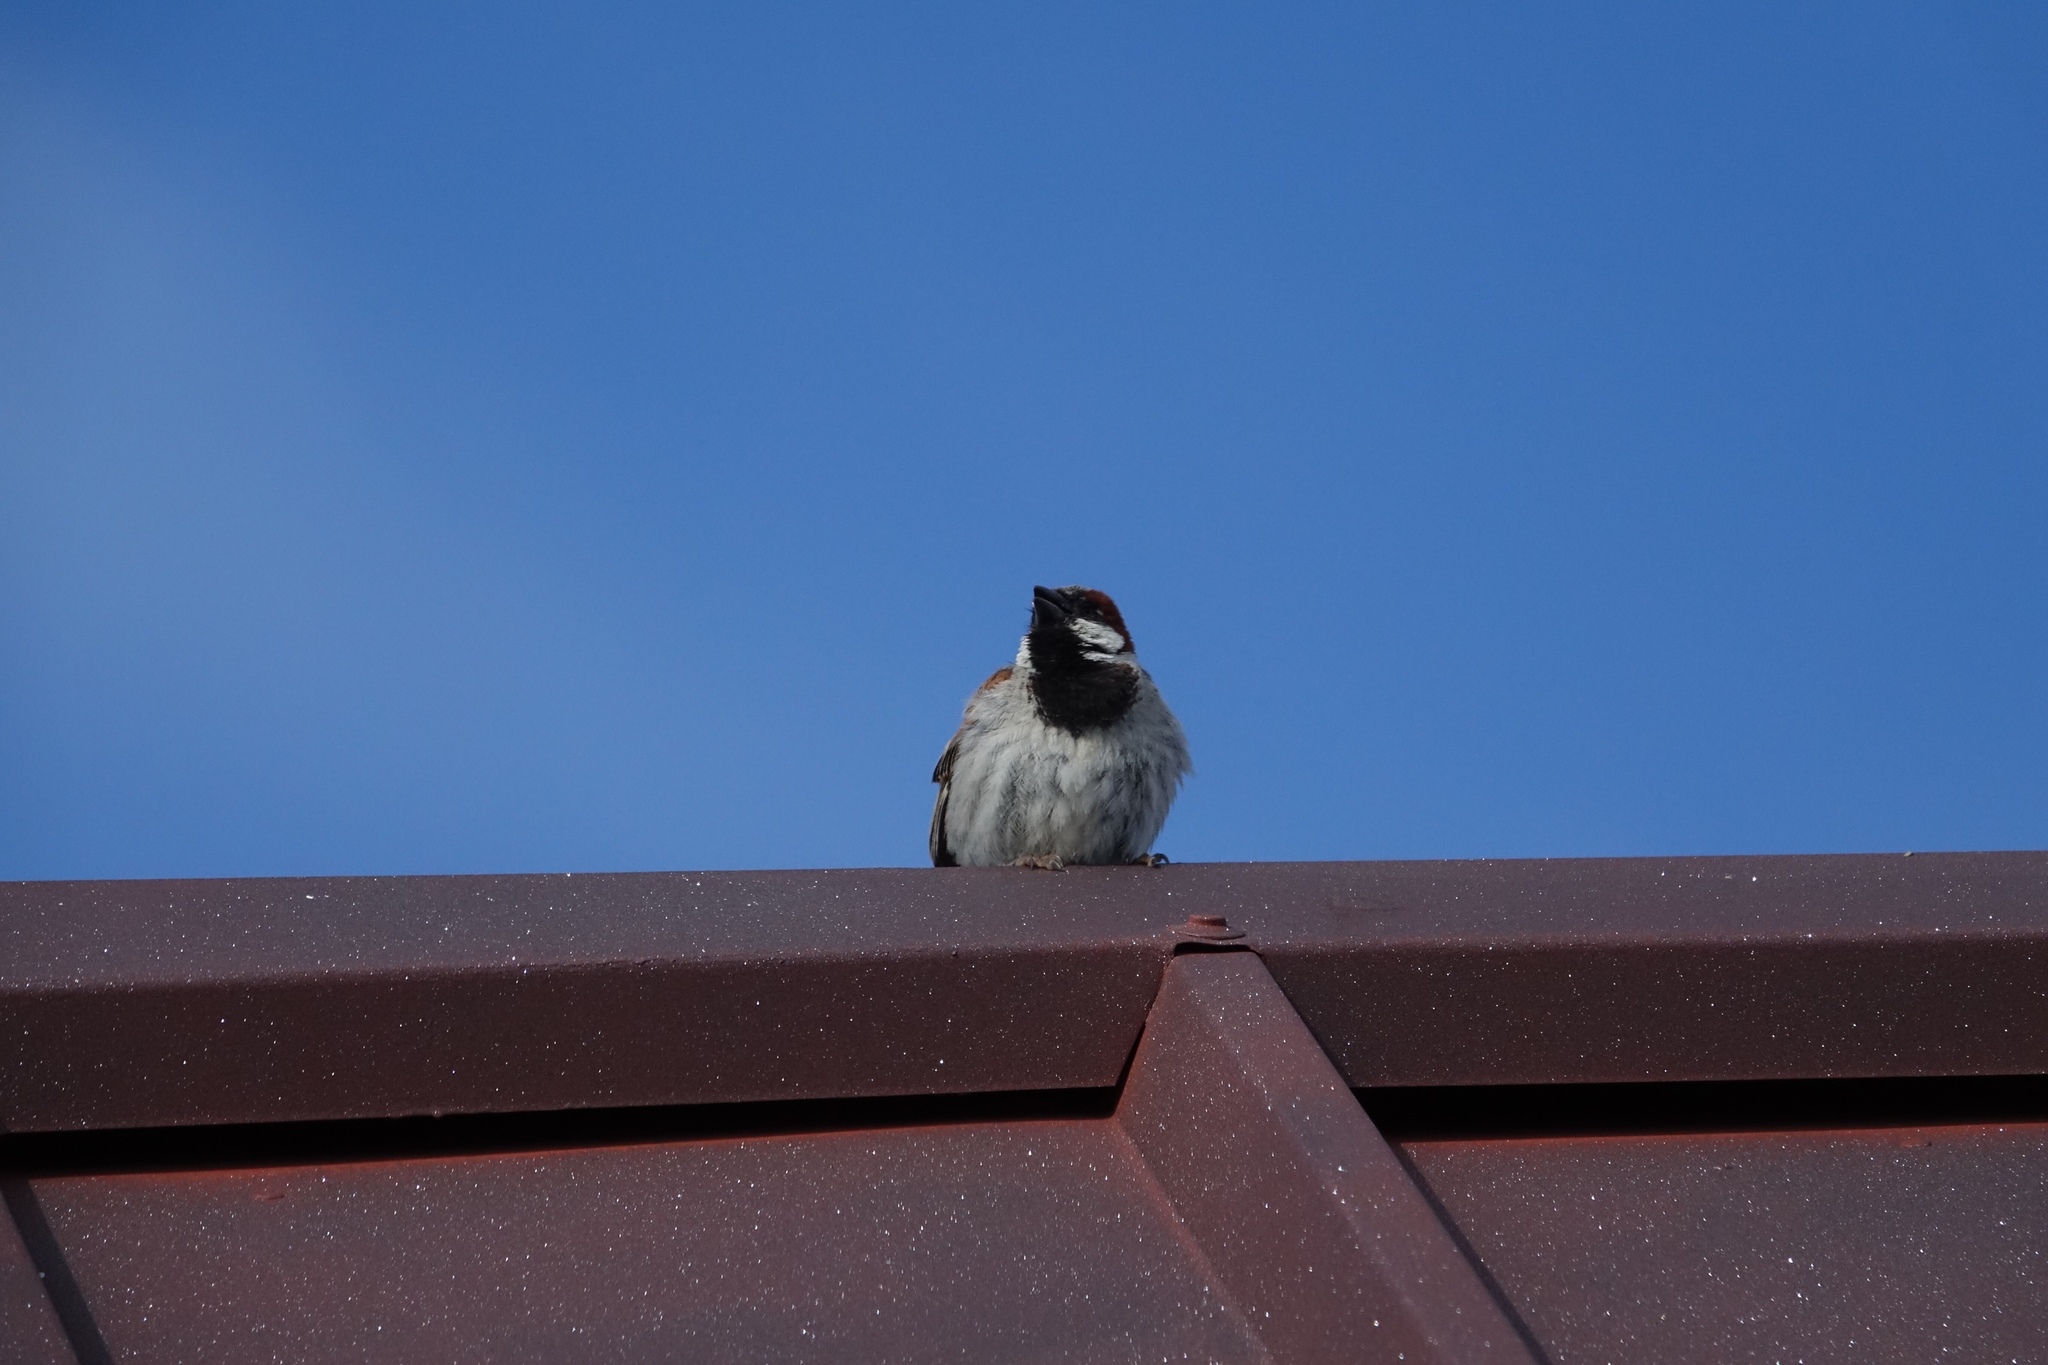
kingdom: Animalia
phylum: Chordata
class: Aves
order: Passeriformes
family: Passeridae
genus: Passer
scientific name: Passer domesticus
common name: House sparrow
